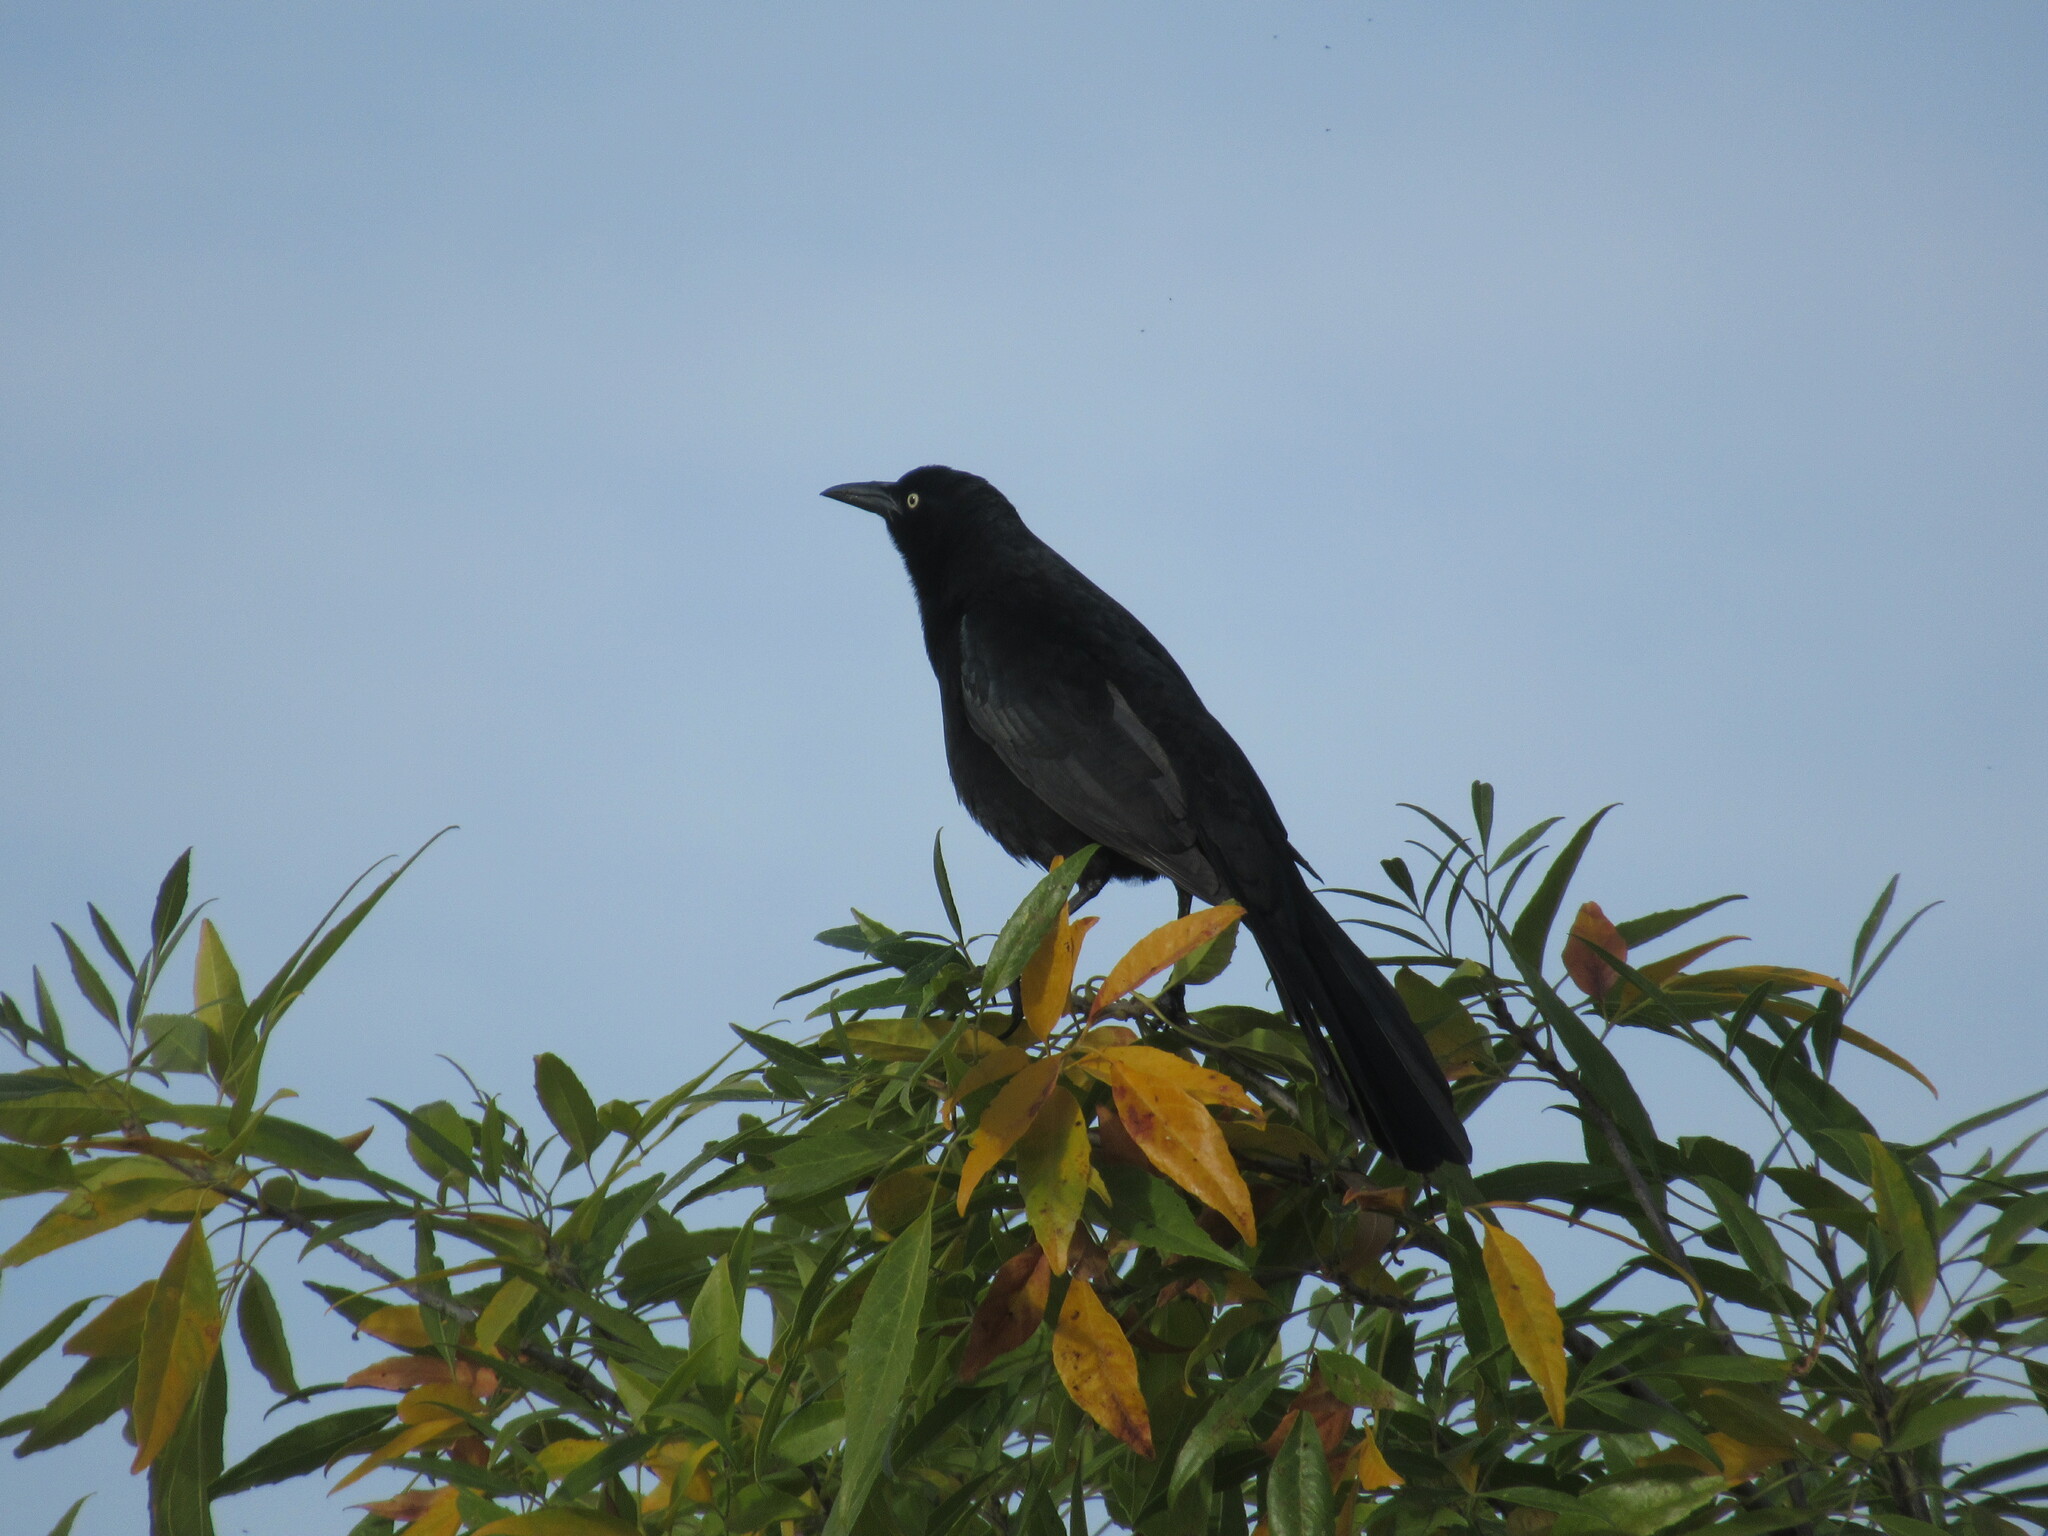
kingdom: Animalia
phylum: Chordata
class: Aves
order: Passeriformes
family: Icteridae
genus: Quiscalus
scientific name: Quiscalus mexicanus
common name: Great-tailed grackle
